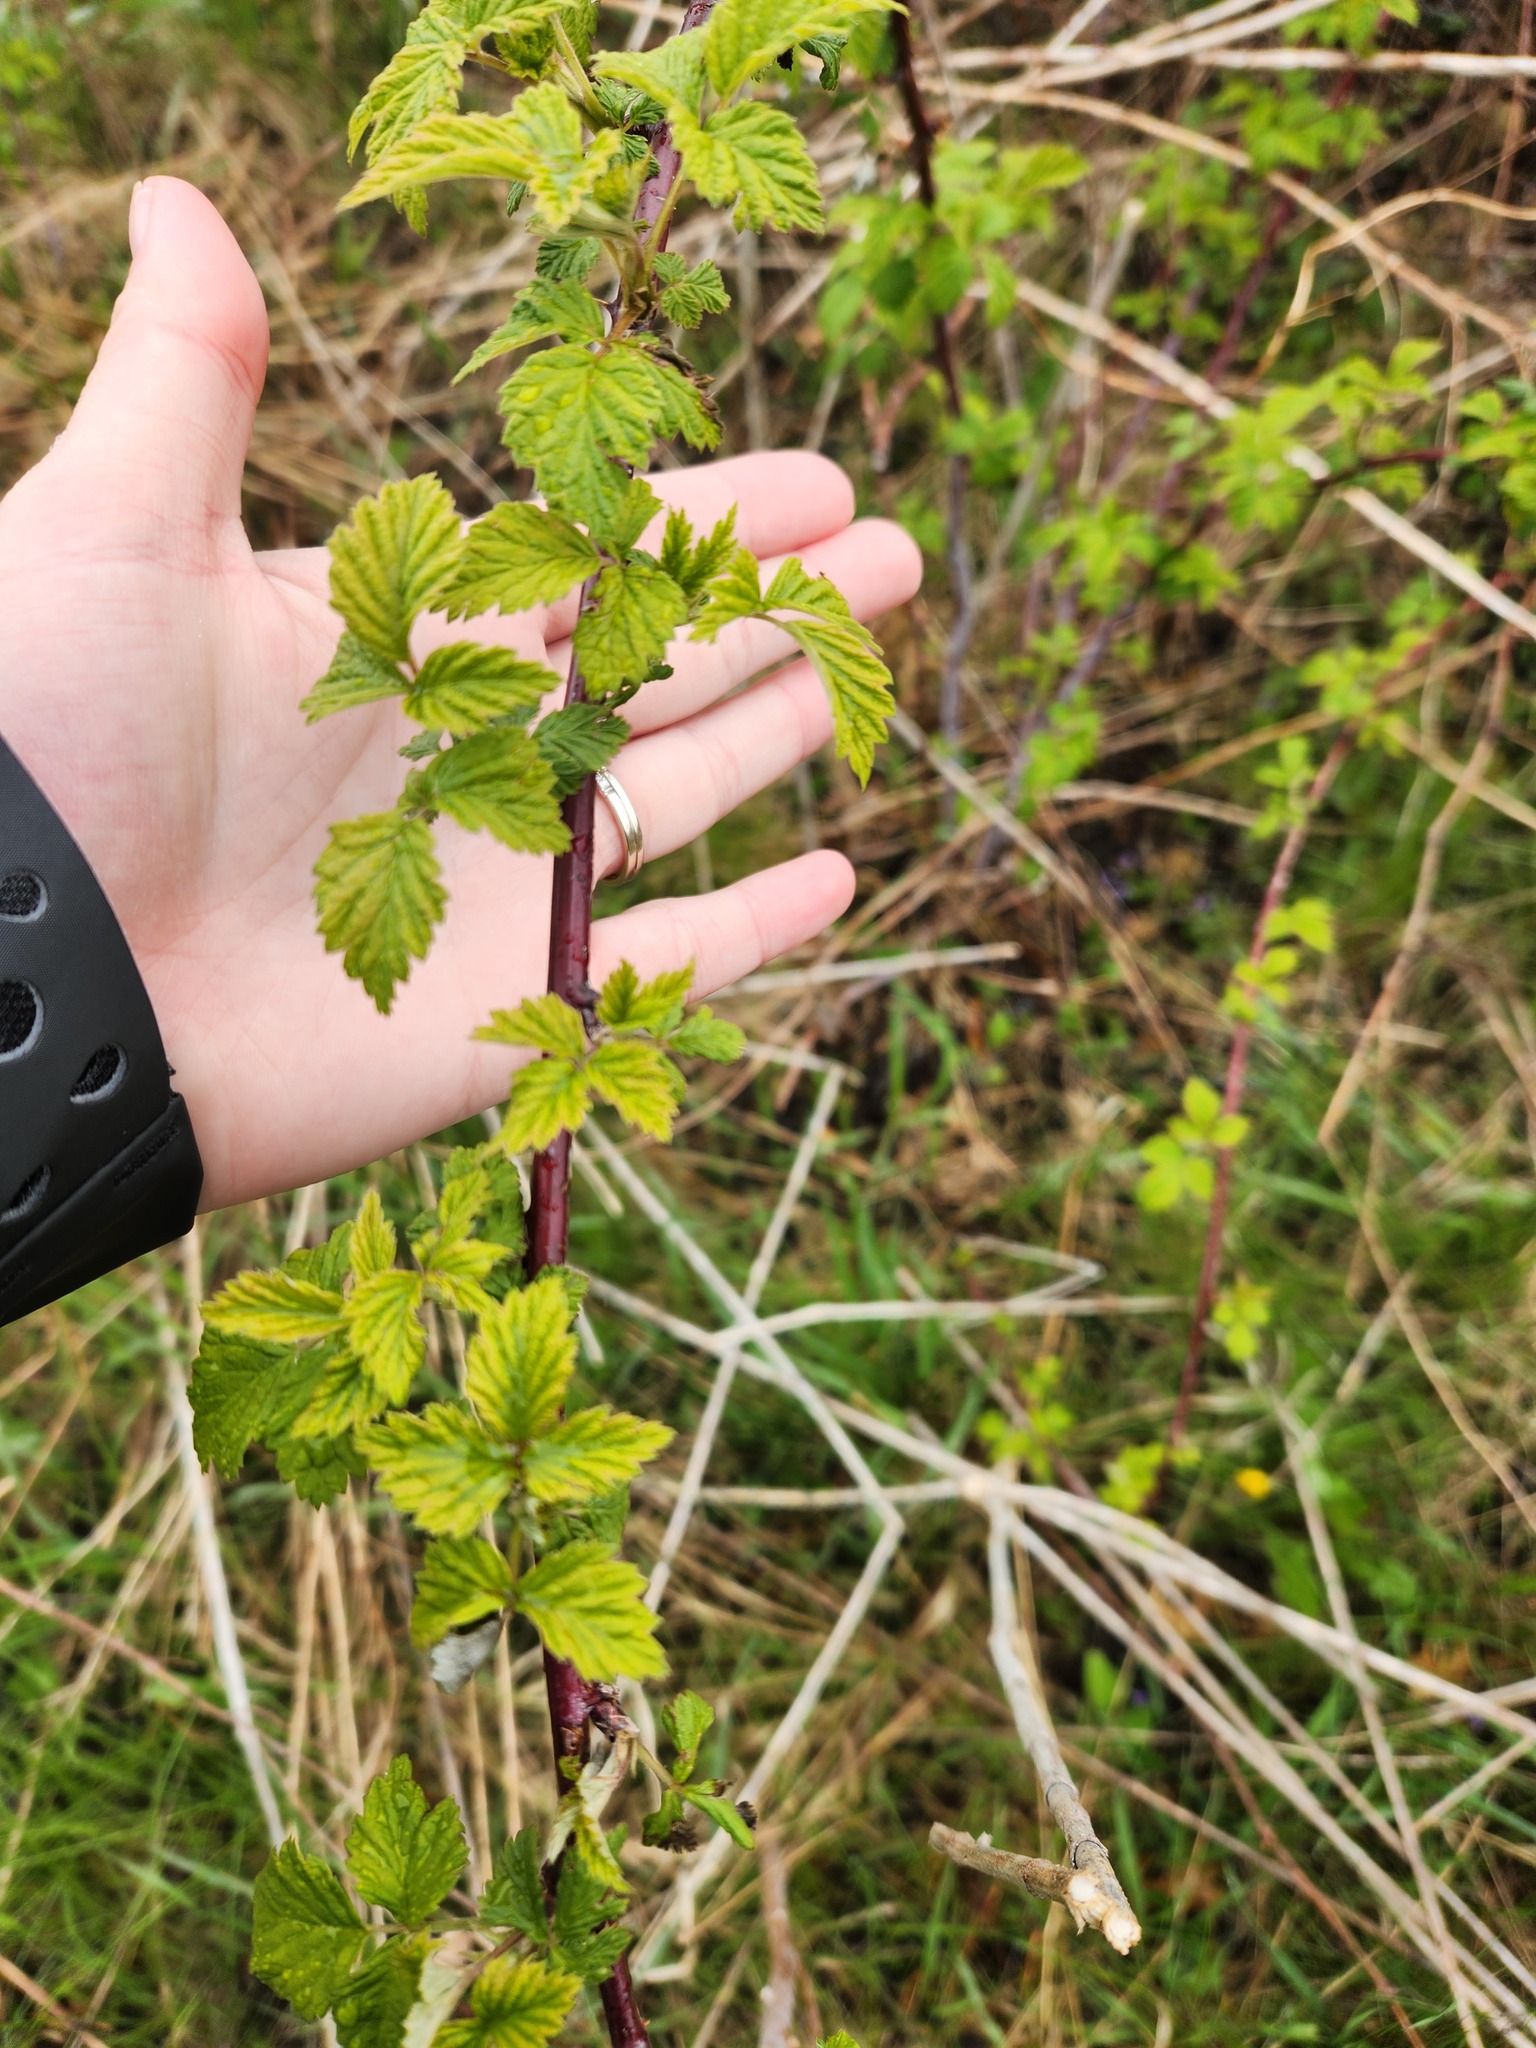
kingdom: Plantae
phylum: Tracheophyta
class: Magnoliopsida
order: Rosales
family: Rosaceae
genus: Rubus
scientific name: Rubus occidentalis
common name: Black raspberry
